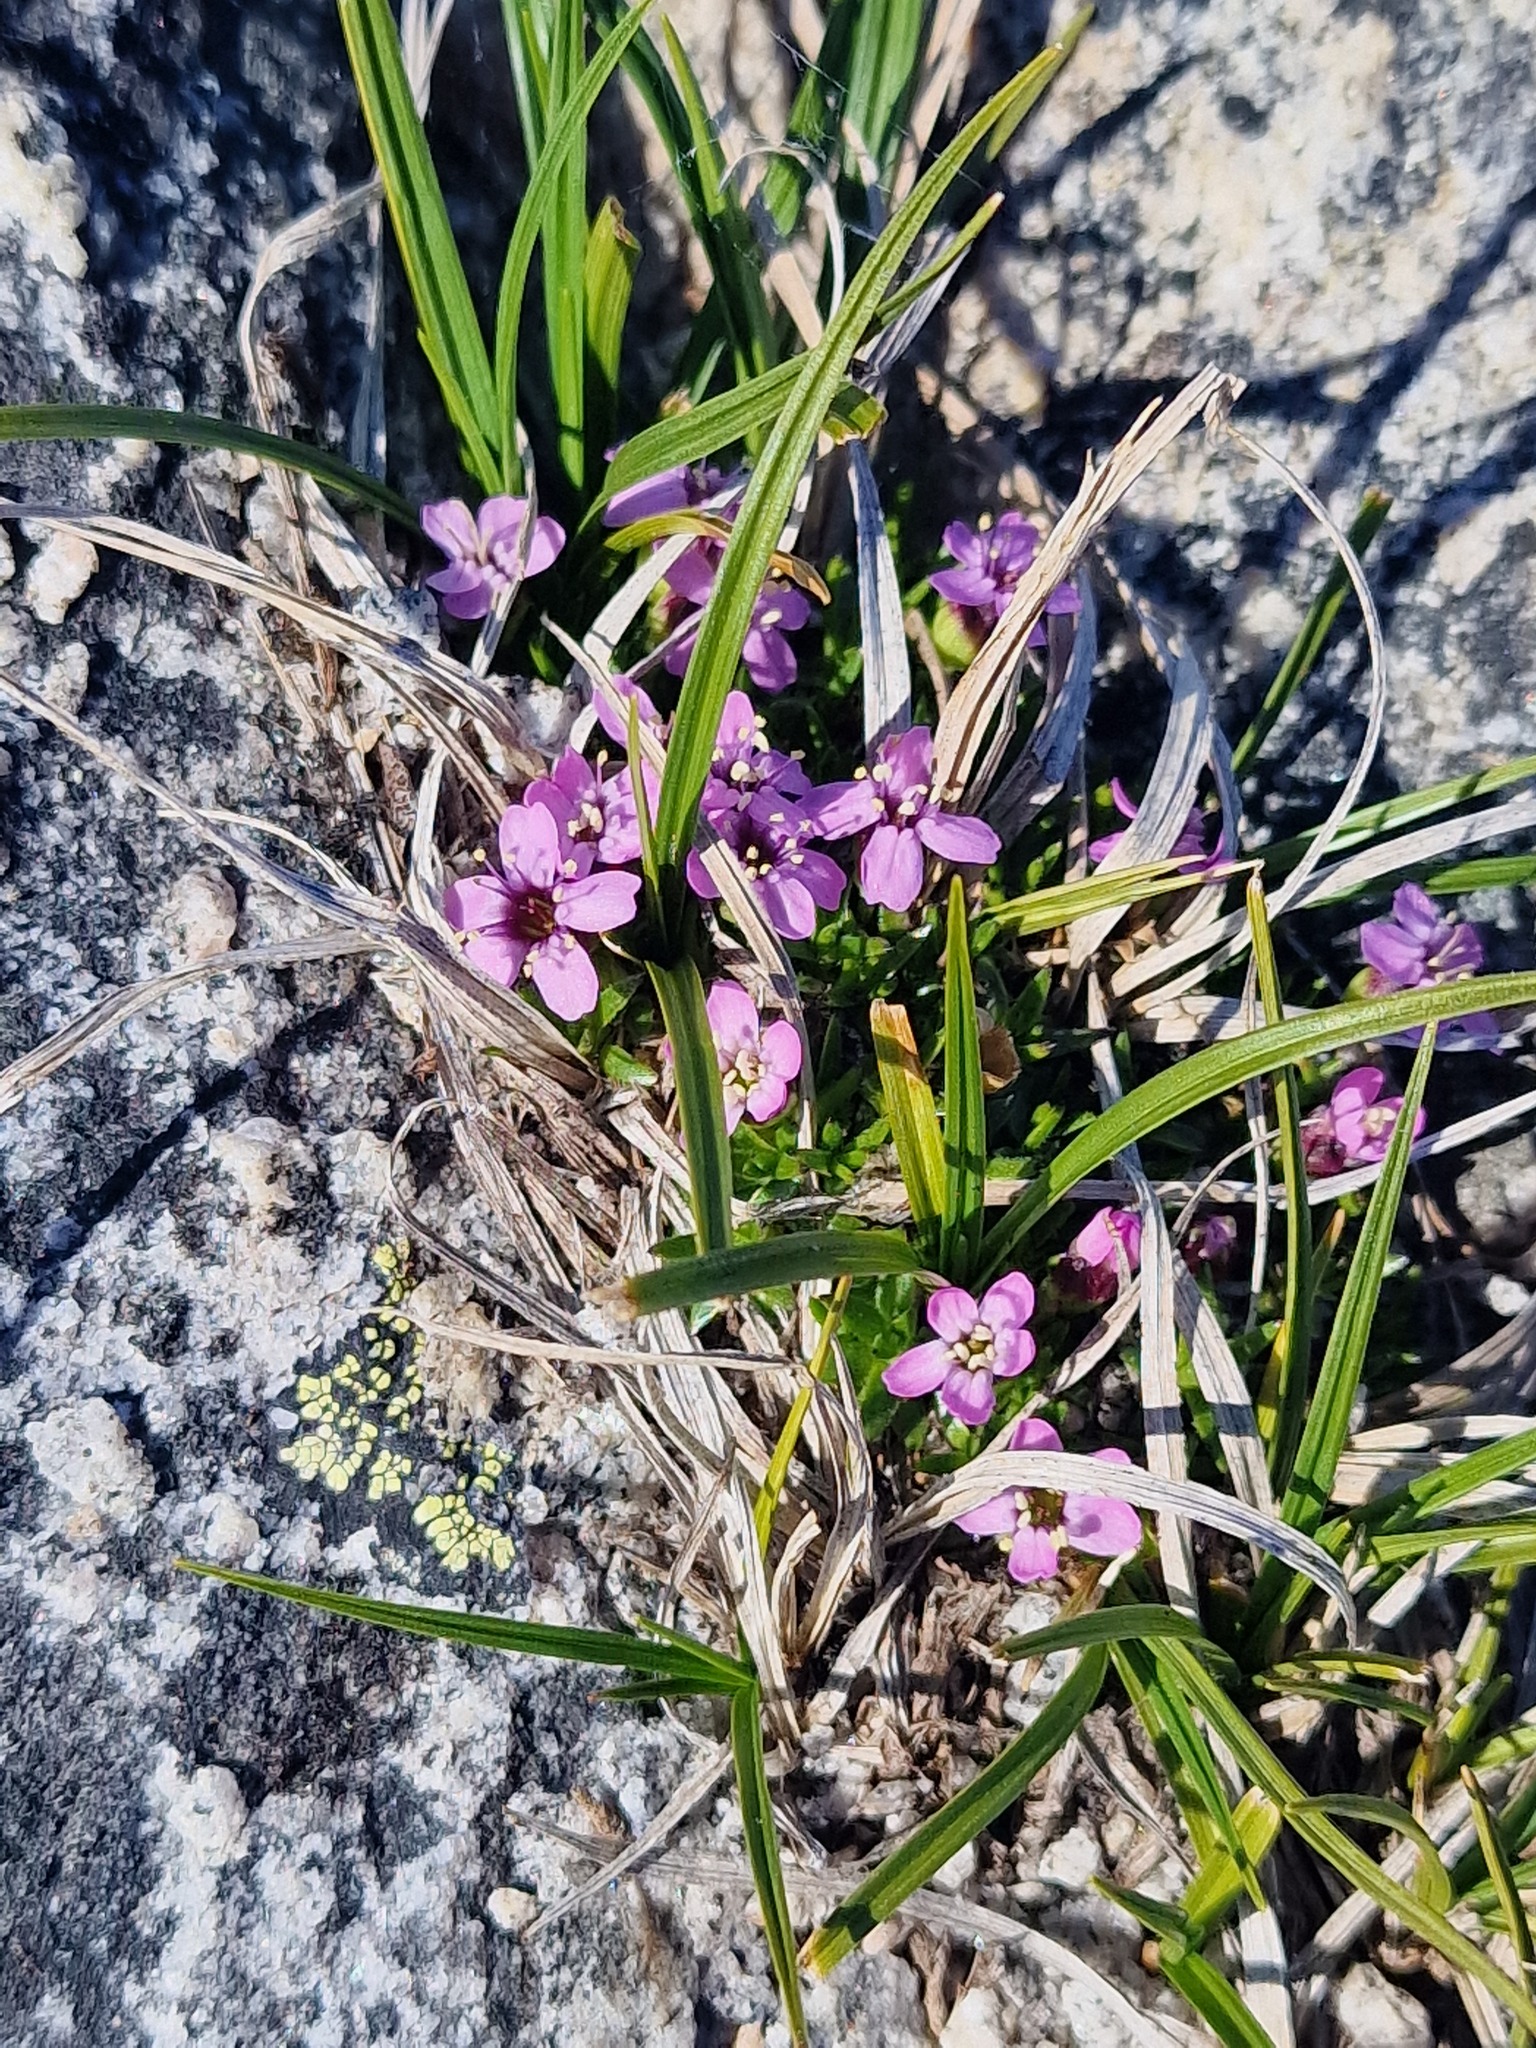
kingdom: Plantae
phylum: Tracheophyta
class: Magnoliopsida
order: Caryophyllales
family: Caryophyllaceae
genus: Silene
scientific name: Silene acaulis
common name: Moss campion
